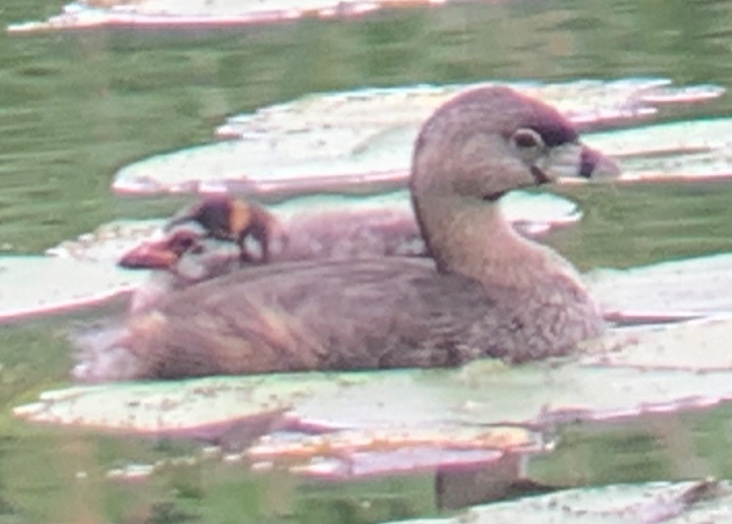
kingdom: Animalia
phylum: Chordata
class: Aves
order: Podicipediformes
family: Podicipedidae
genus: Podilymbus
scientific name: Podilymbus podiceps
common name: Pied-billed grebe
